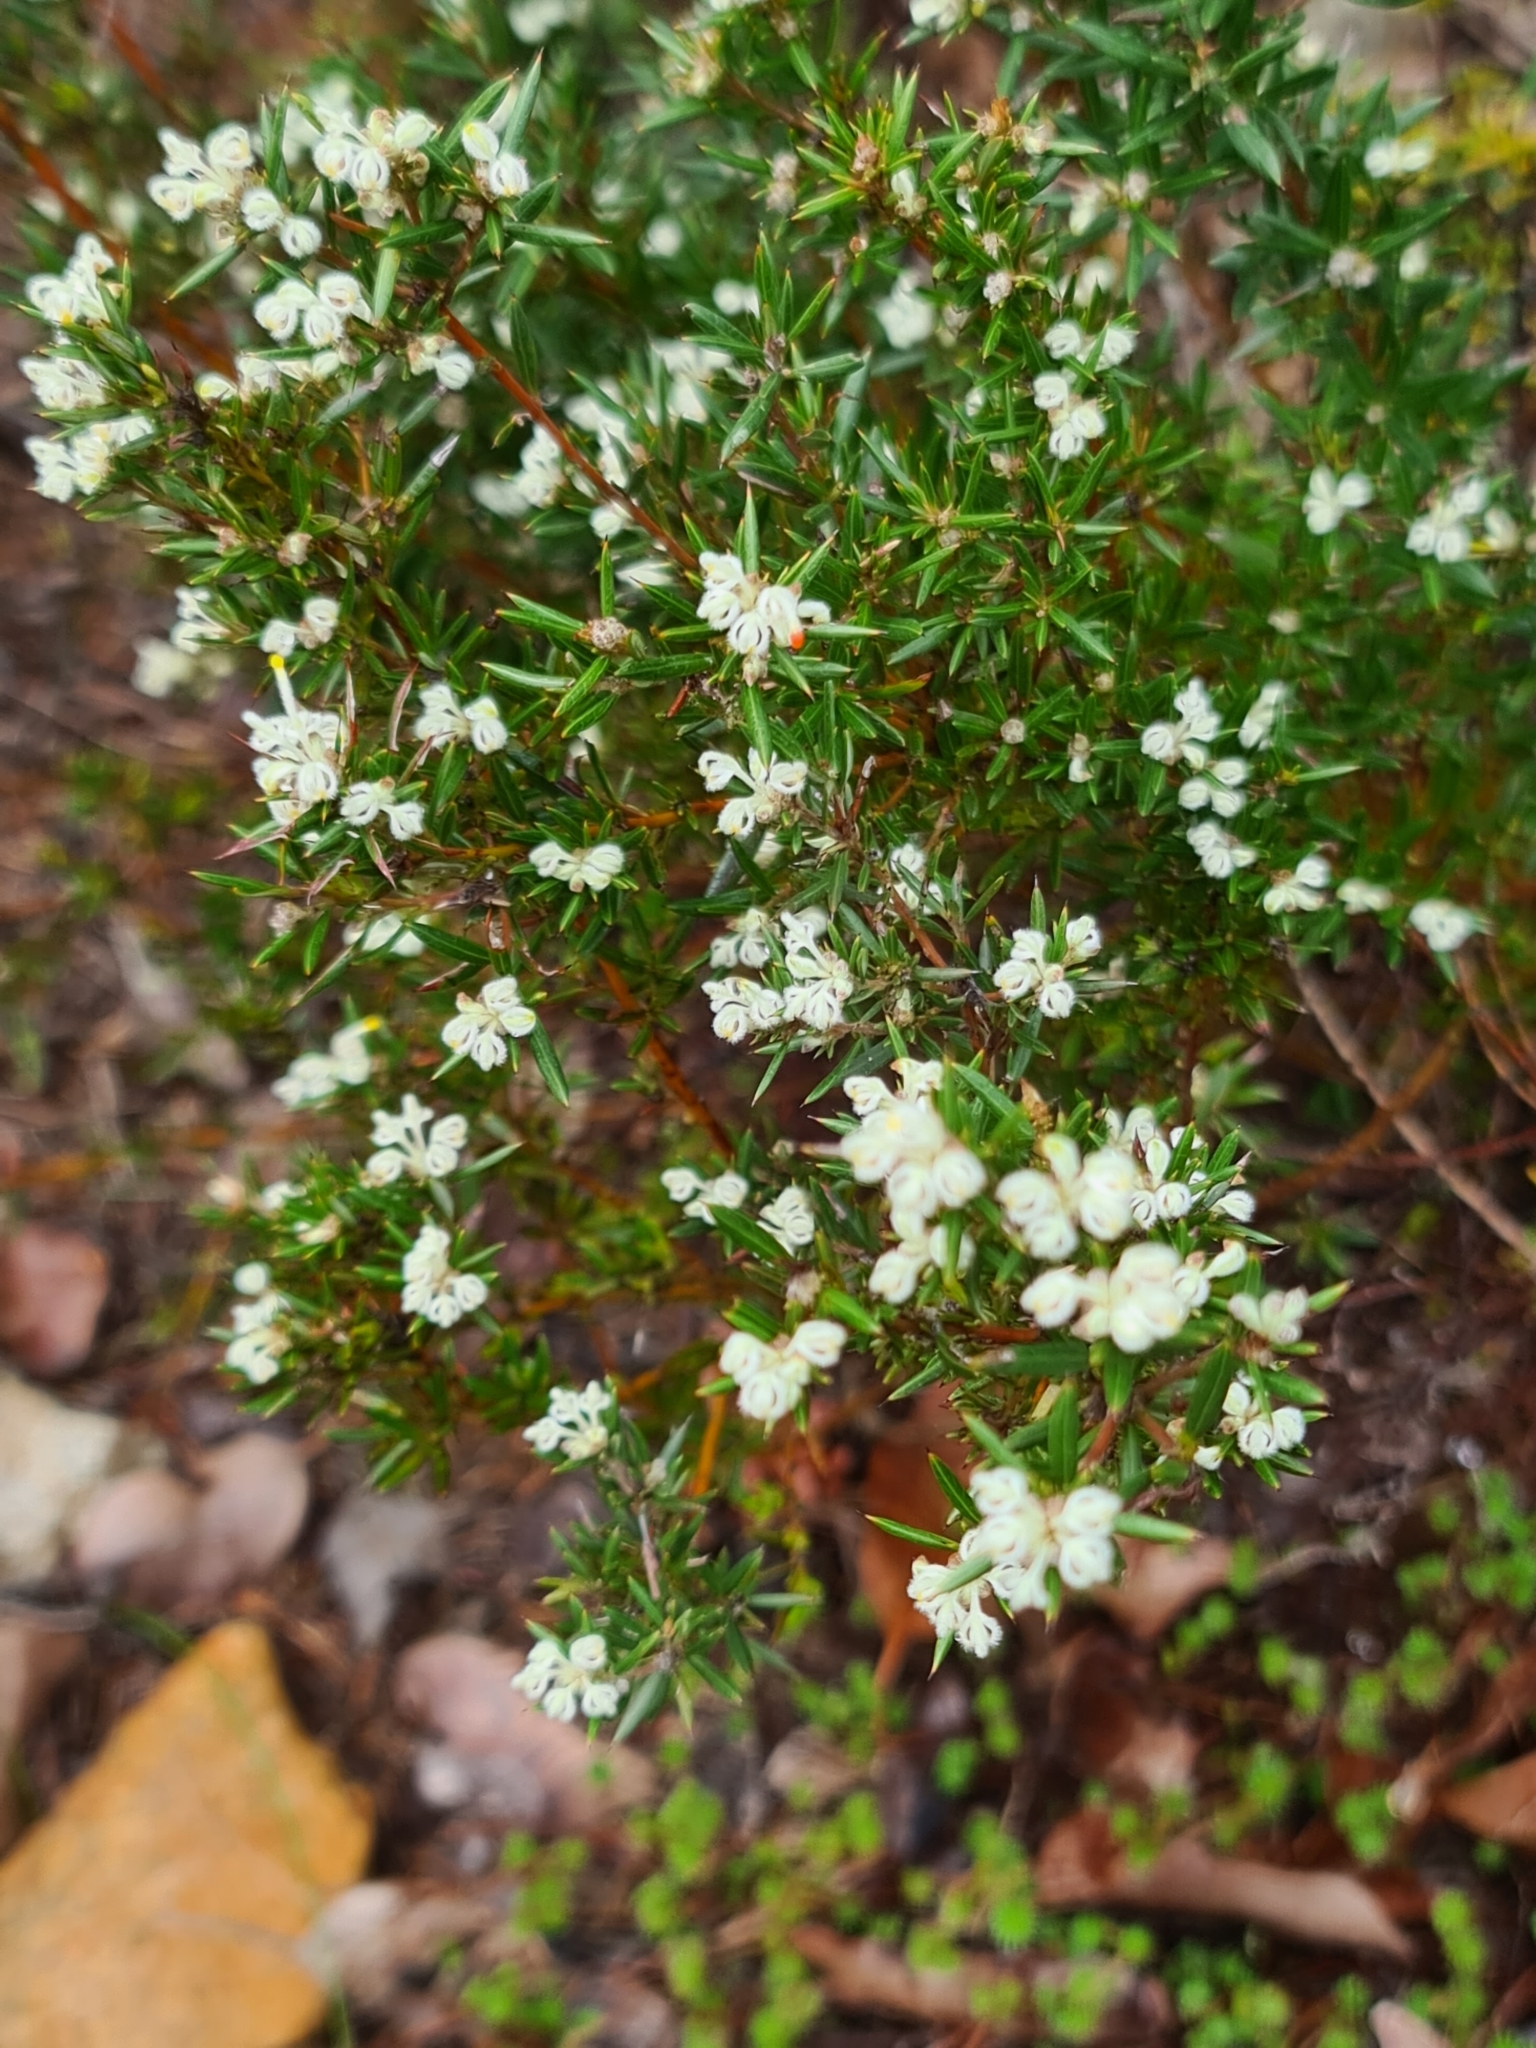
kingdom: Plantae
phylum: Tracheophyta
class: Magnoliopsida
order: Proteales
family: Proteaceae
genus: Grevillea
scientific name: Grevillea pilulifera
